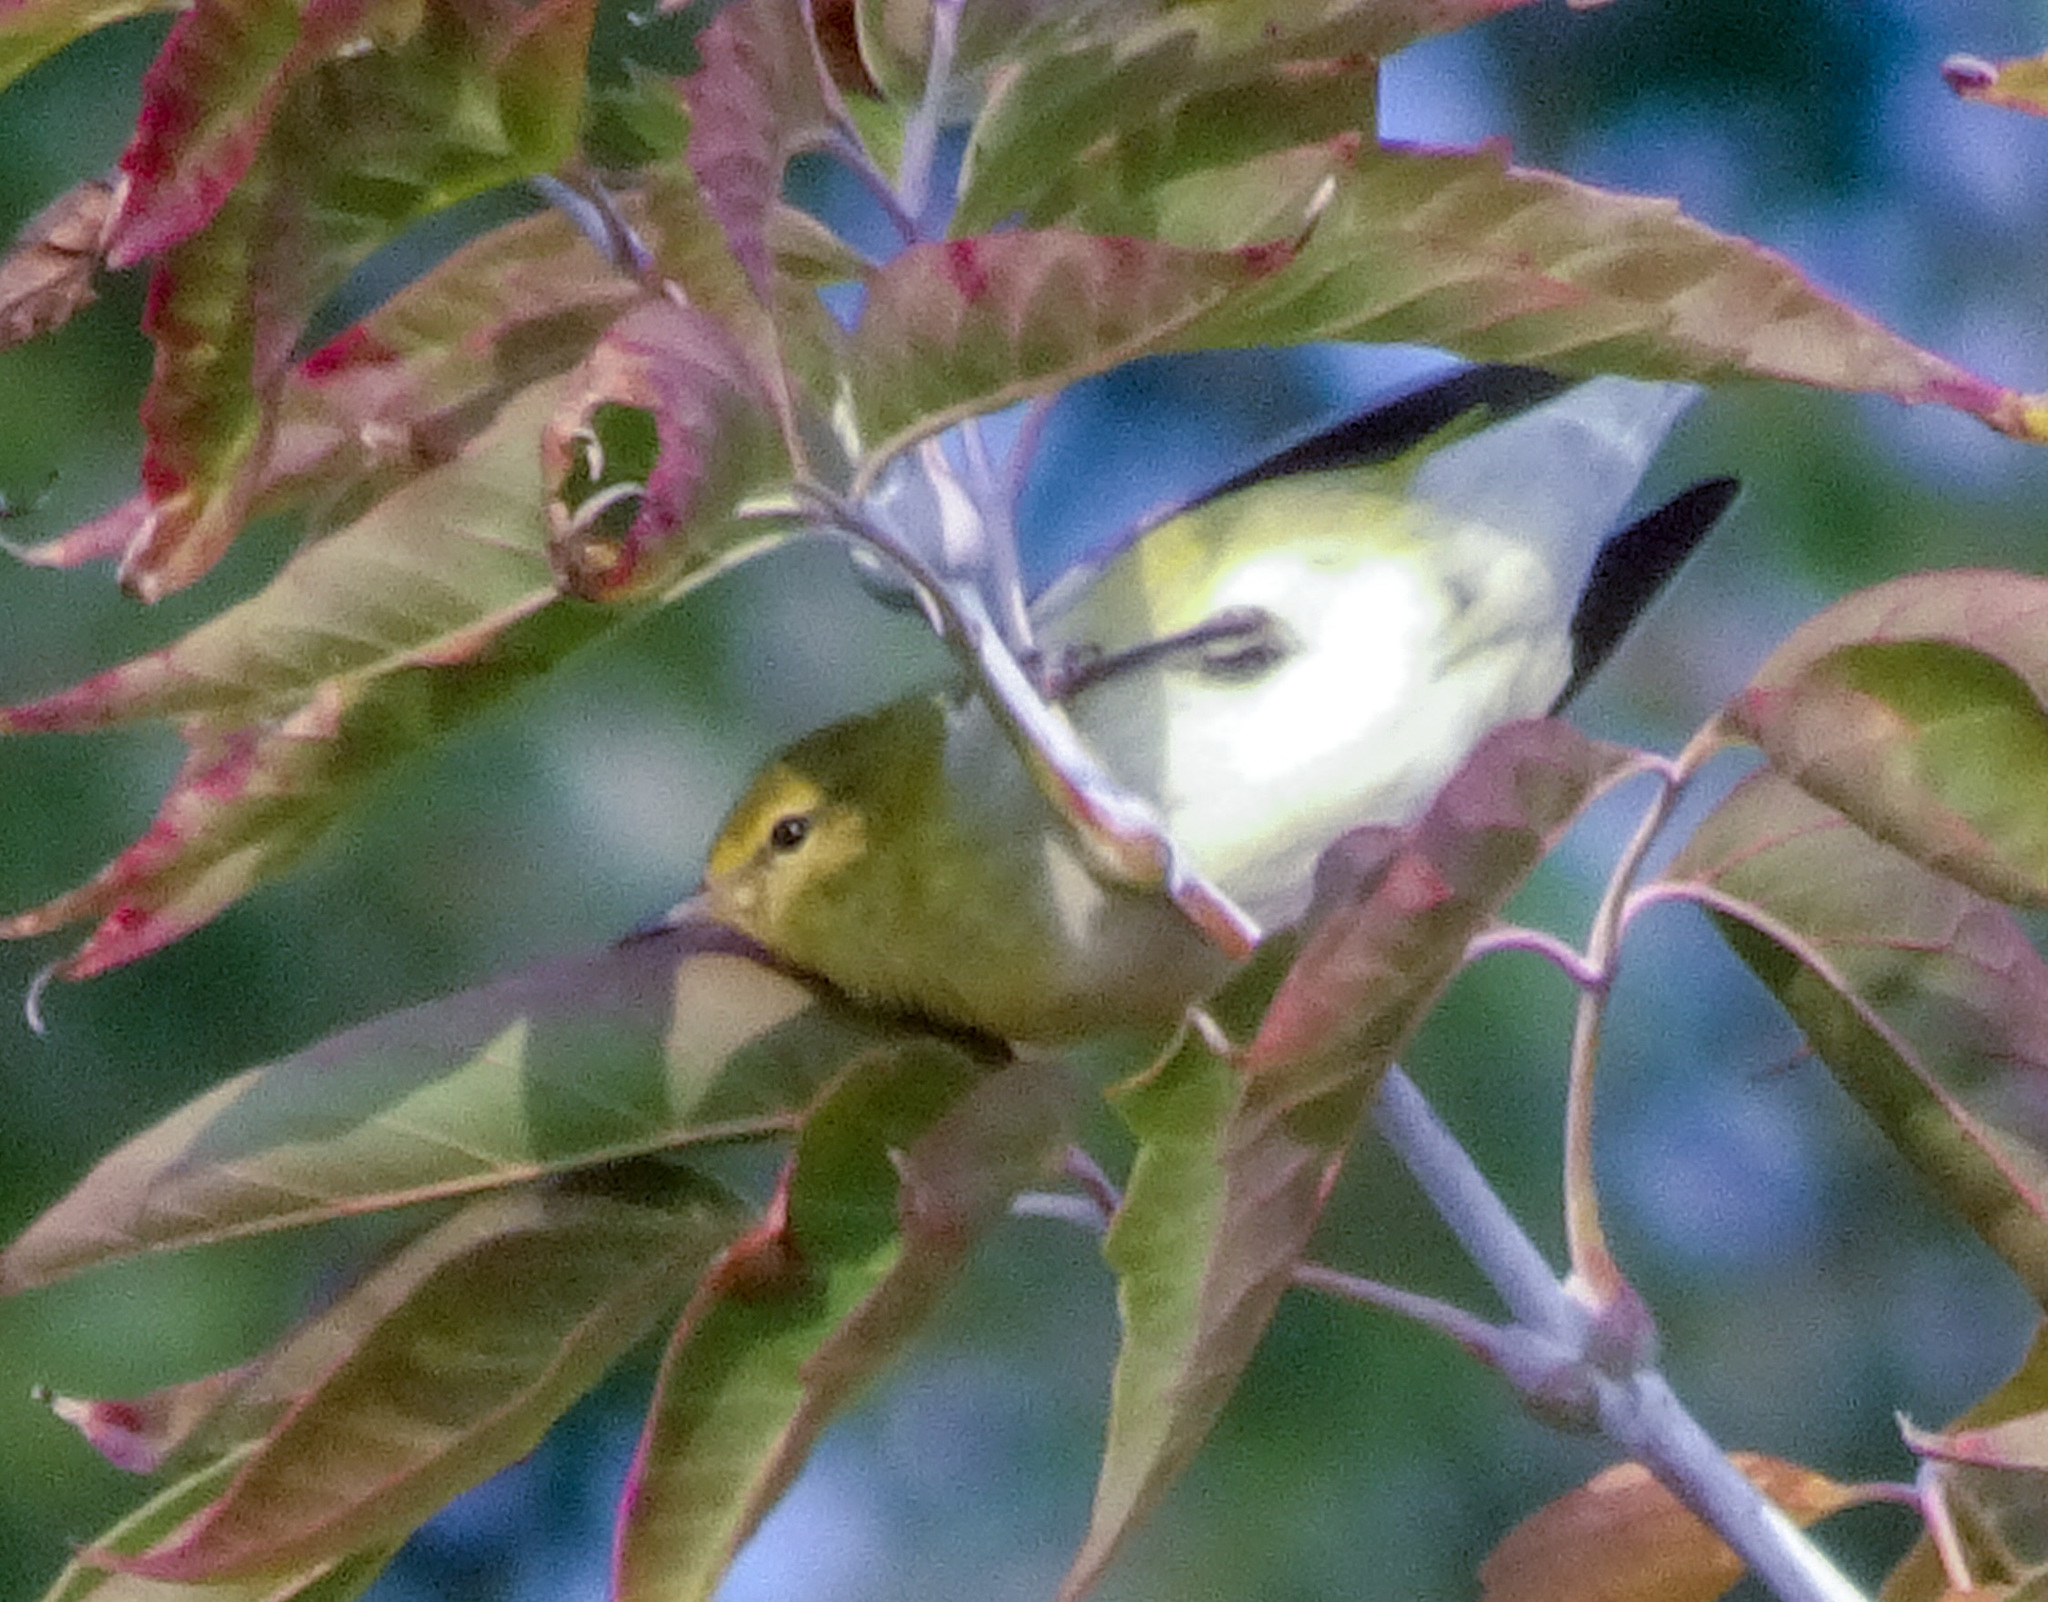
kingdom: Animalia
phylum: Chordata
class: Aves
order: Passeriformes
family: Parulidae
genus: Leiothlypis
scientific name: Leiothlypis peregrina
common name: Tennessee warbler
